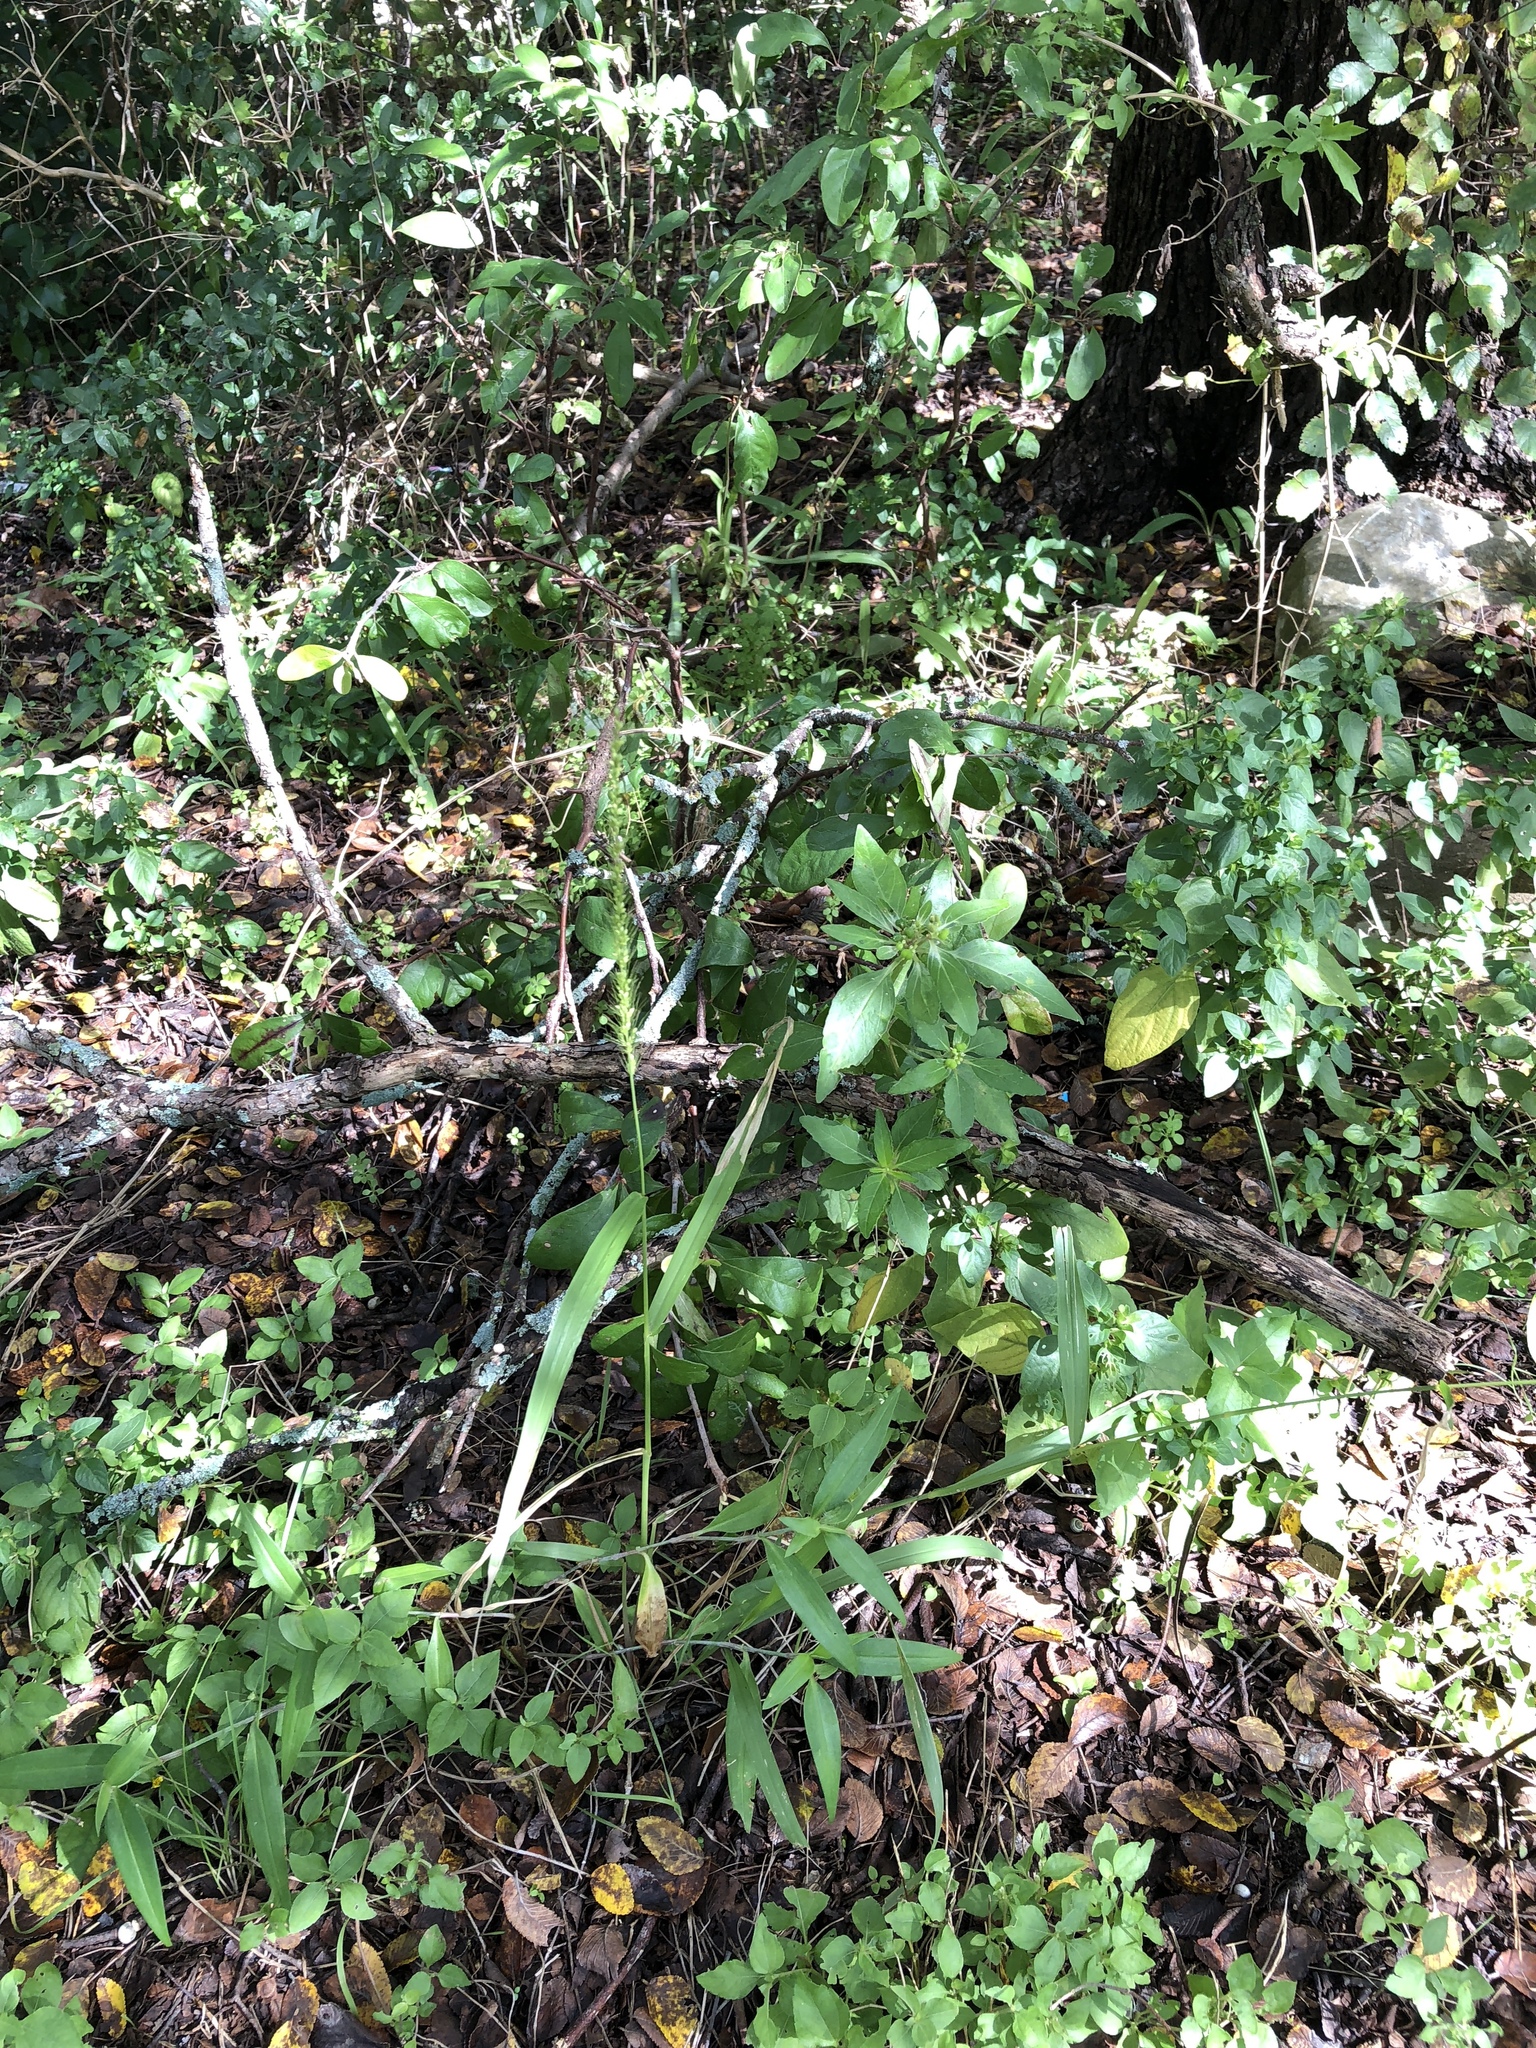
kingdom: Plantae
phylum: Tracheophyta
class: Liliopsida
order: Poales
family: Poaceae
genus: Setaria
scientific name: Setaria scheelei
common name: Southwestern bristle grass
